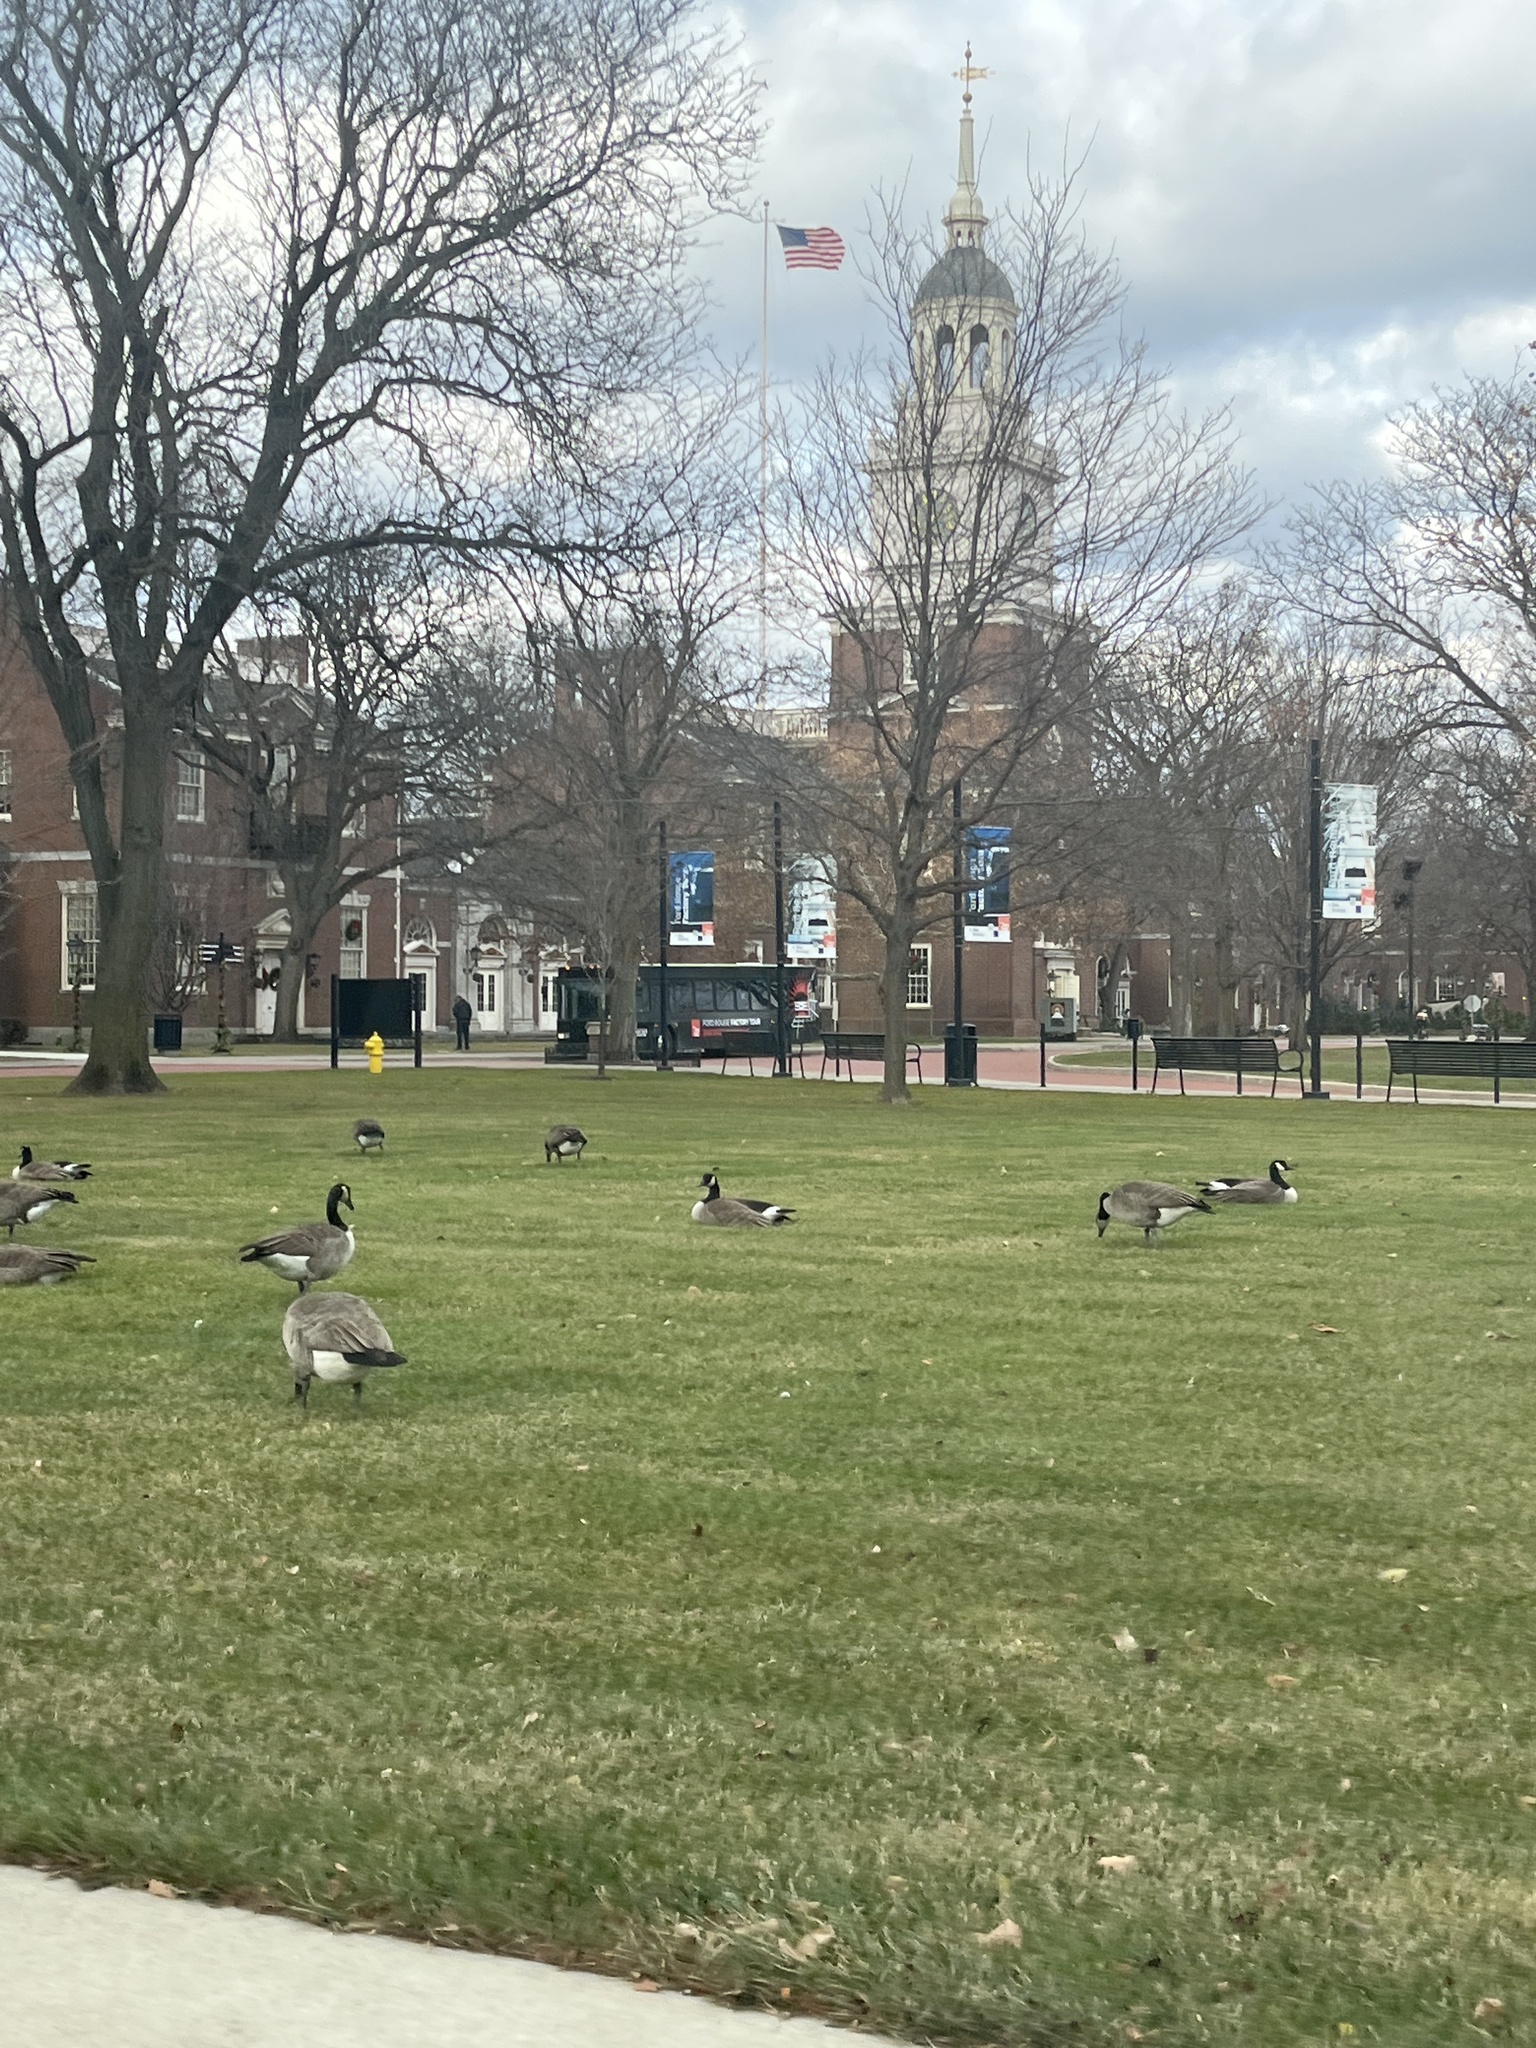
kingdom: Animalia
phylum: Chordata
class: Aves
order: Anseriformes
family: Anatidae
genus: Branta
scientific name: Branta canadensis
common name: Canada goose
